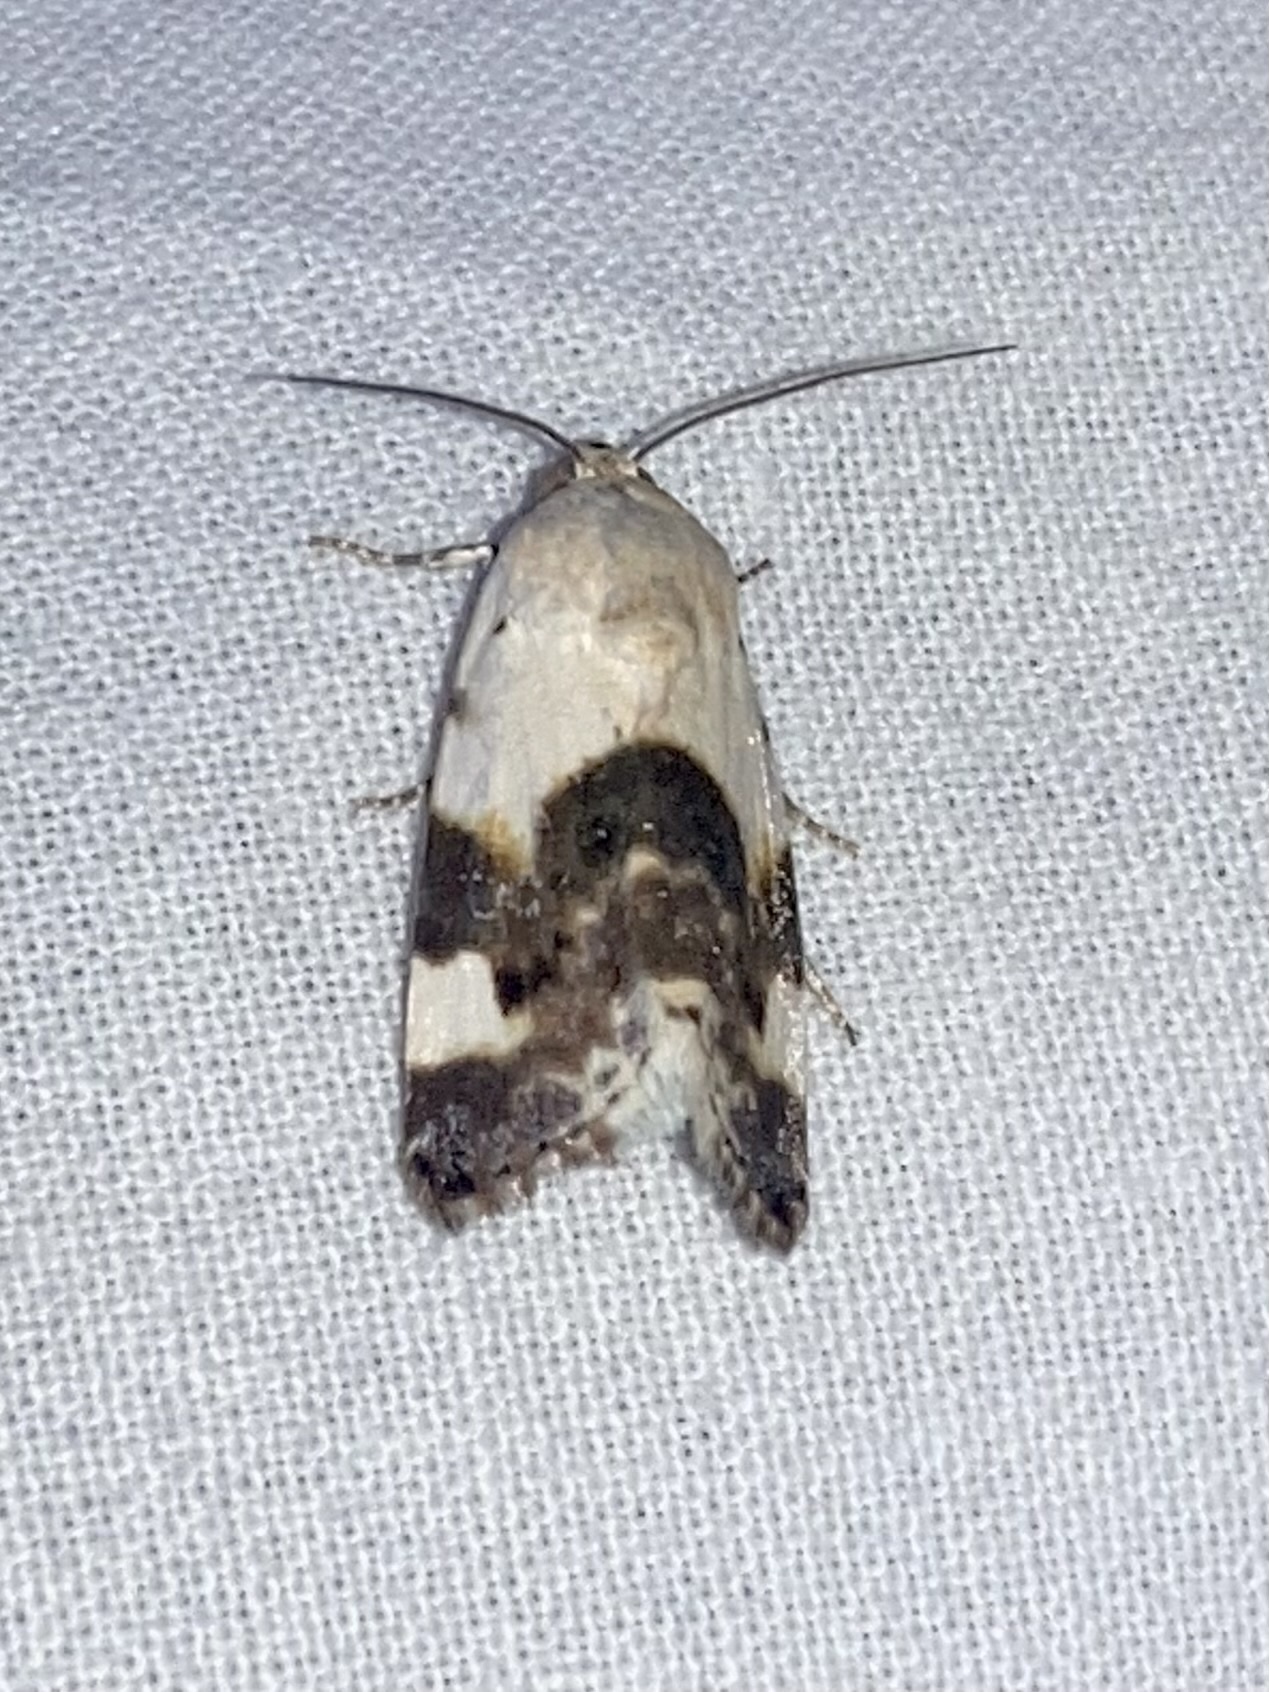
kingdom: Animalia
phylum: Arthropoda
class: Insecta
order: Lepidoptera
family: Noctuidae
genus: Acontia
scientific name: Acontia lucida
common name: Pale shoulder
